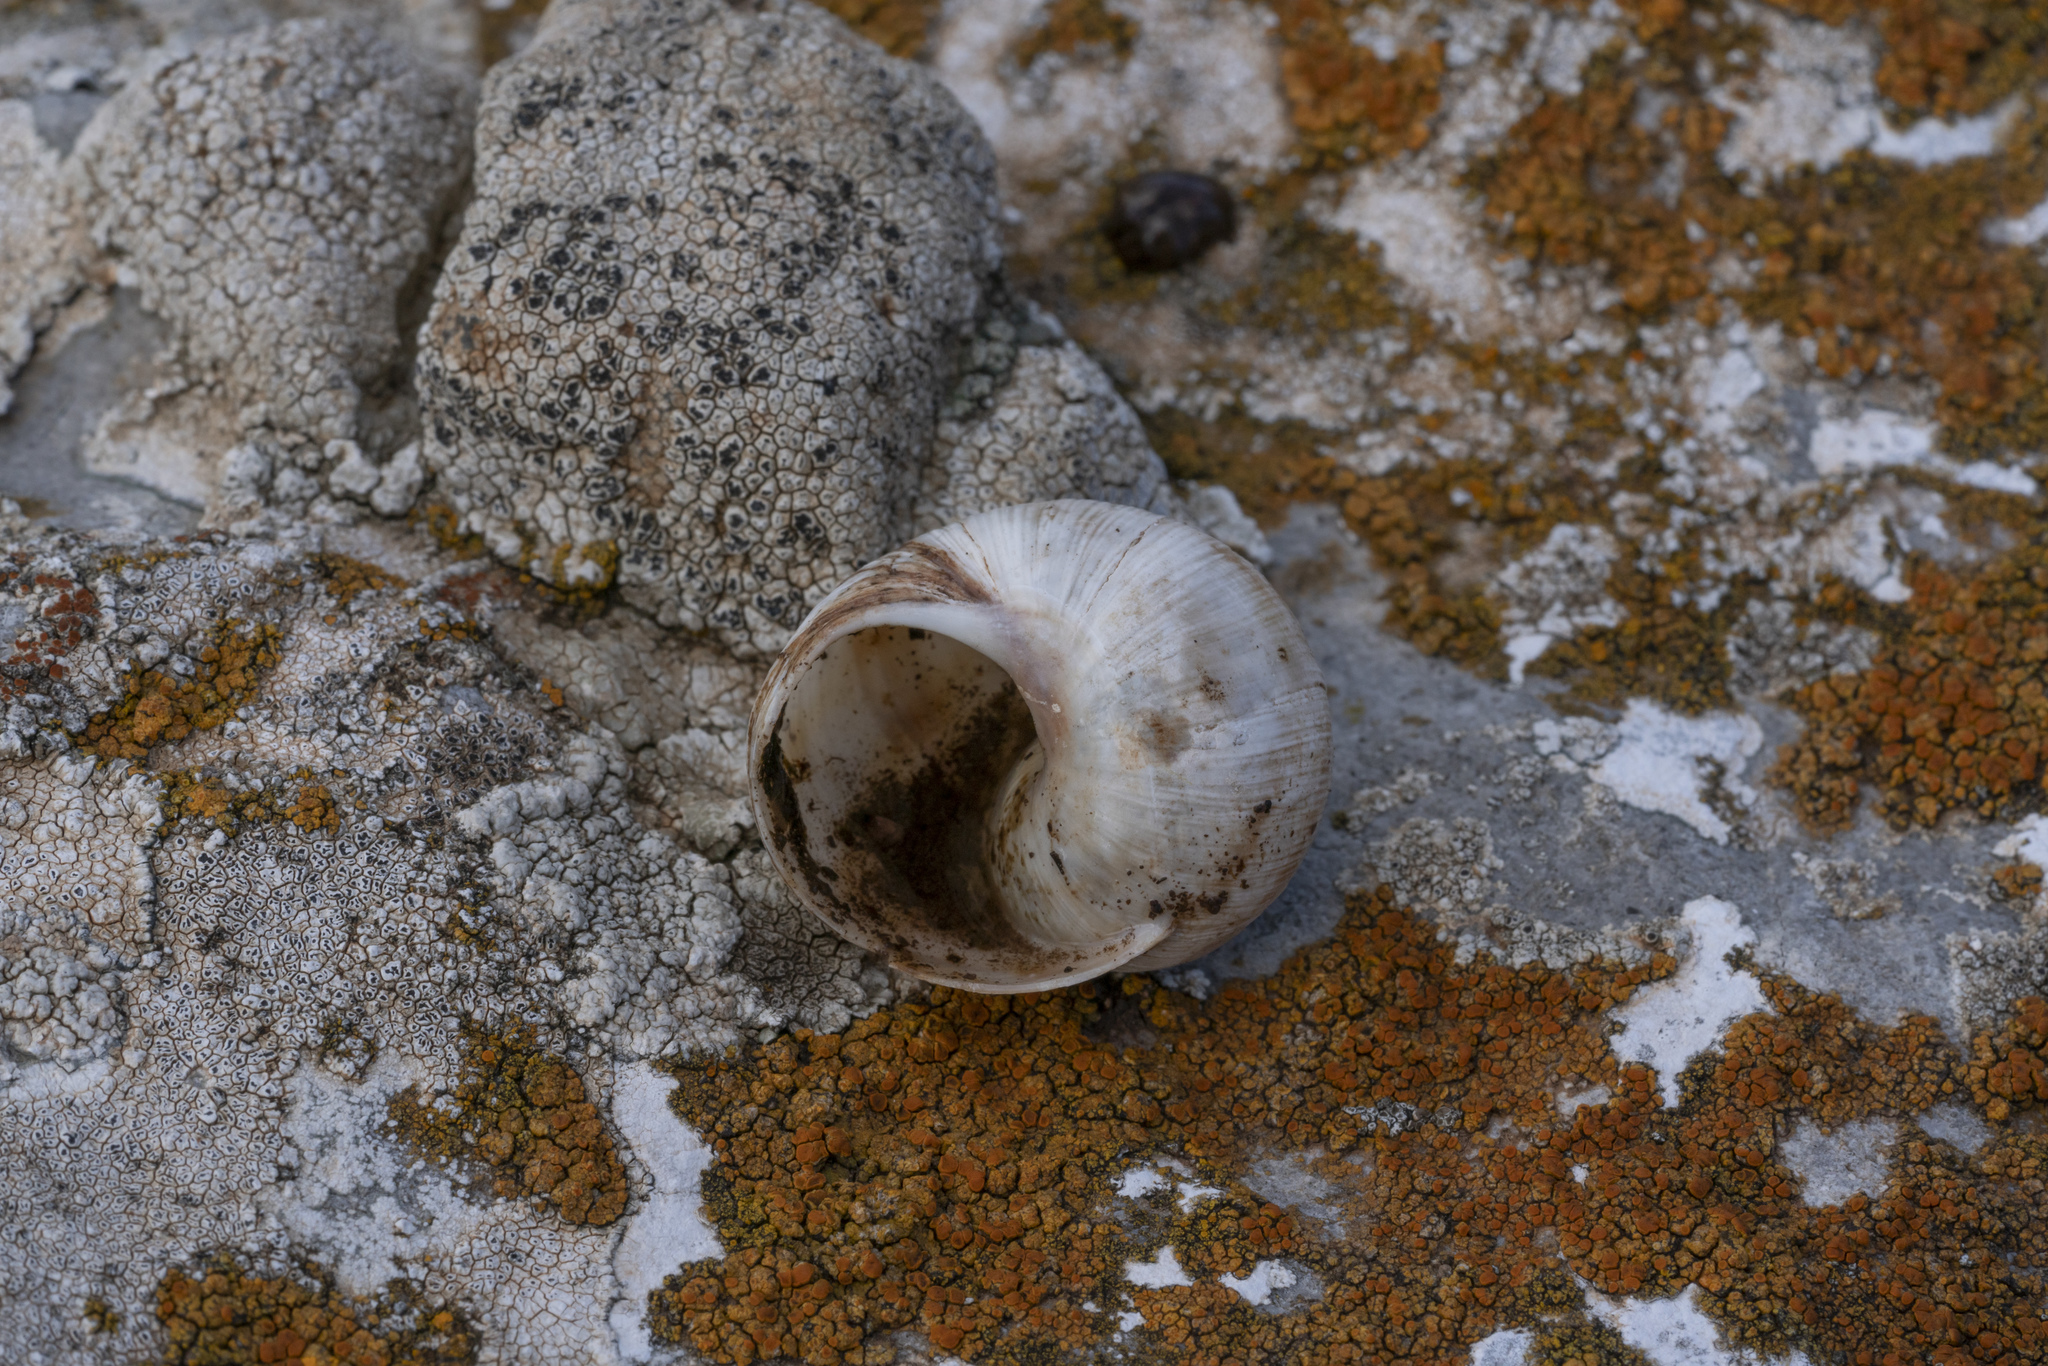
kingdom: Animalia
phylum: Mollusca
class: Gastropoda
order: Stylommatophora
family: Helicidae
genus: Helix
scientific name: Helix nucula
